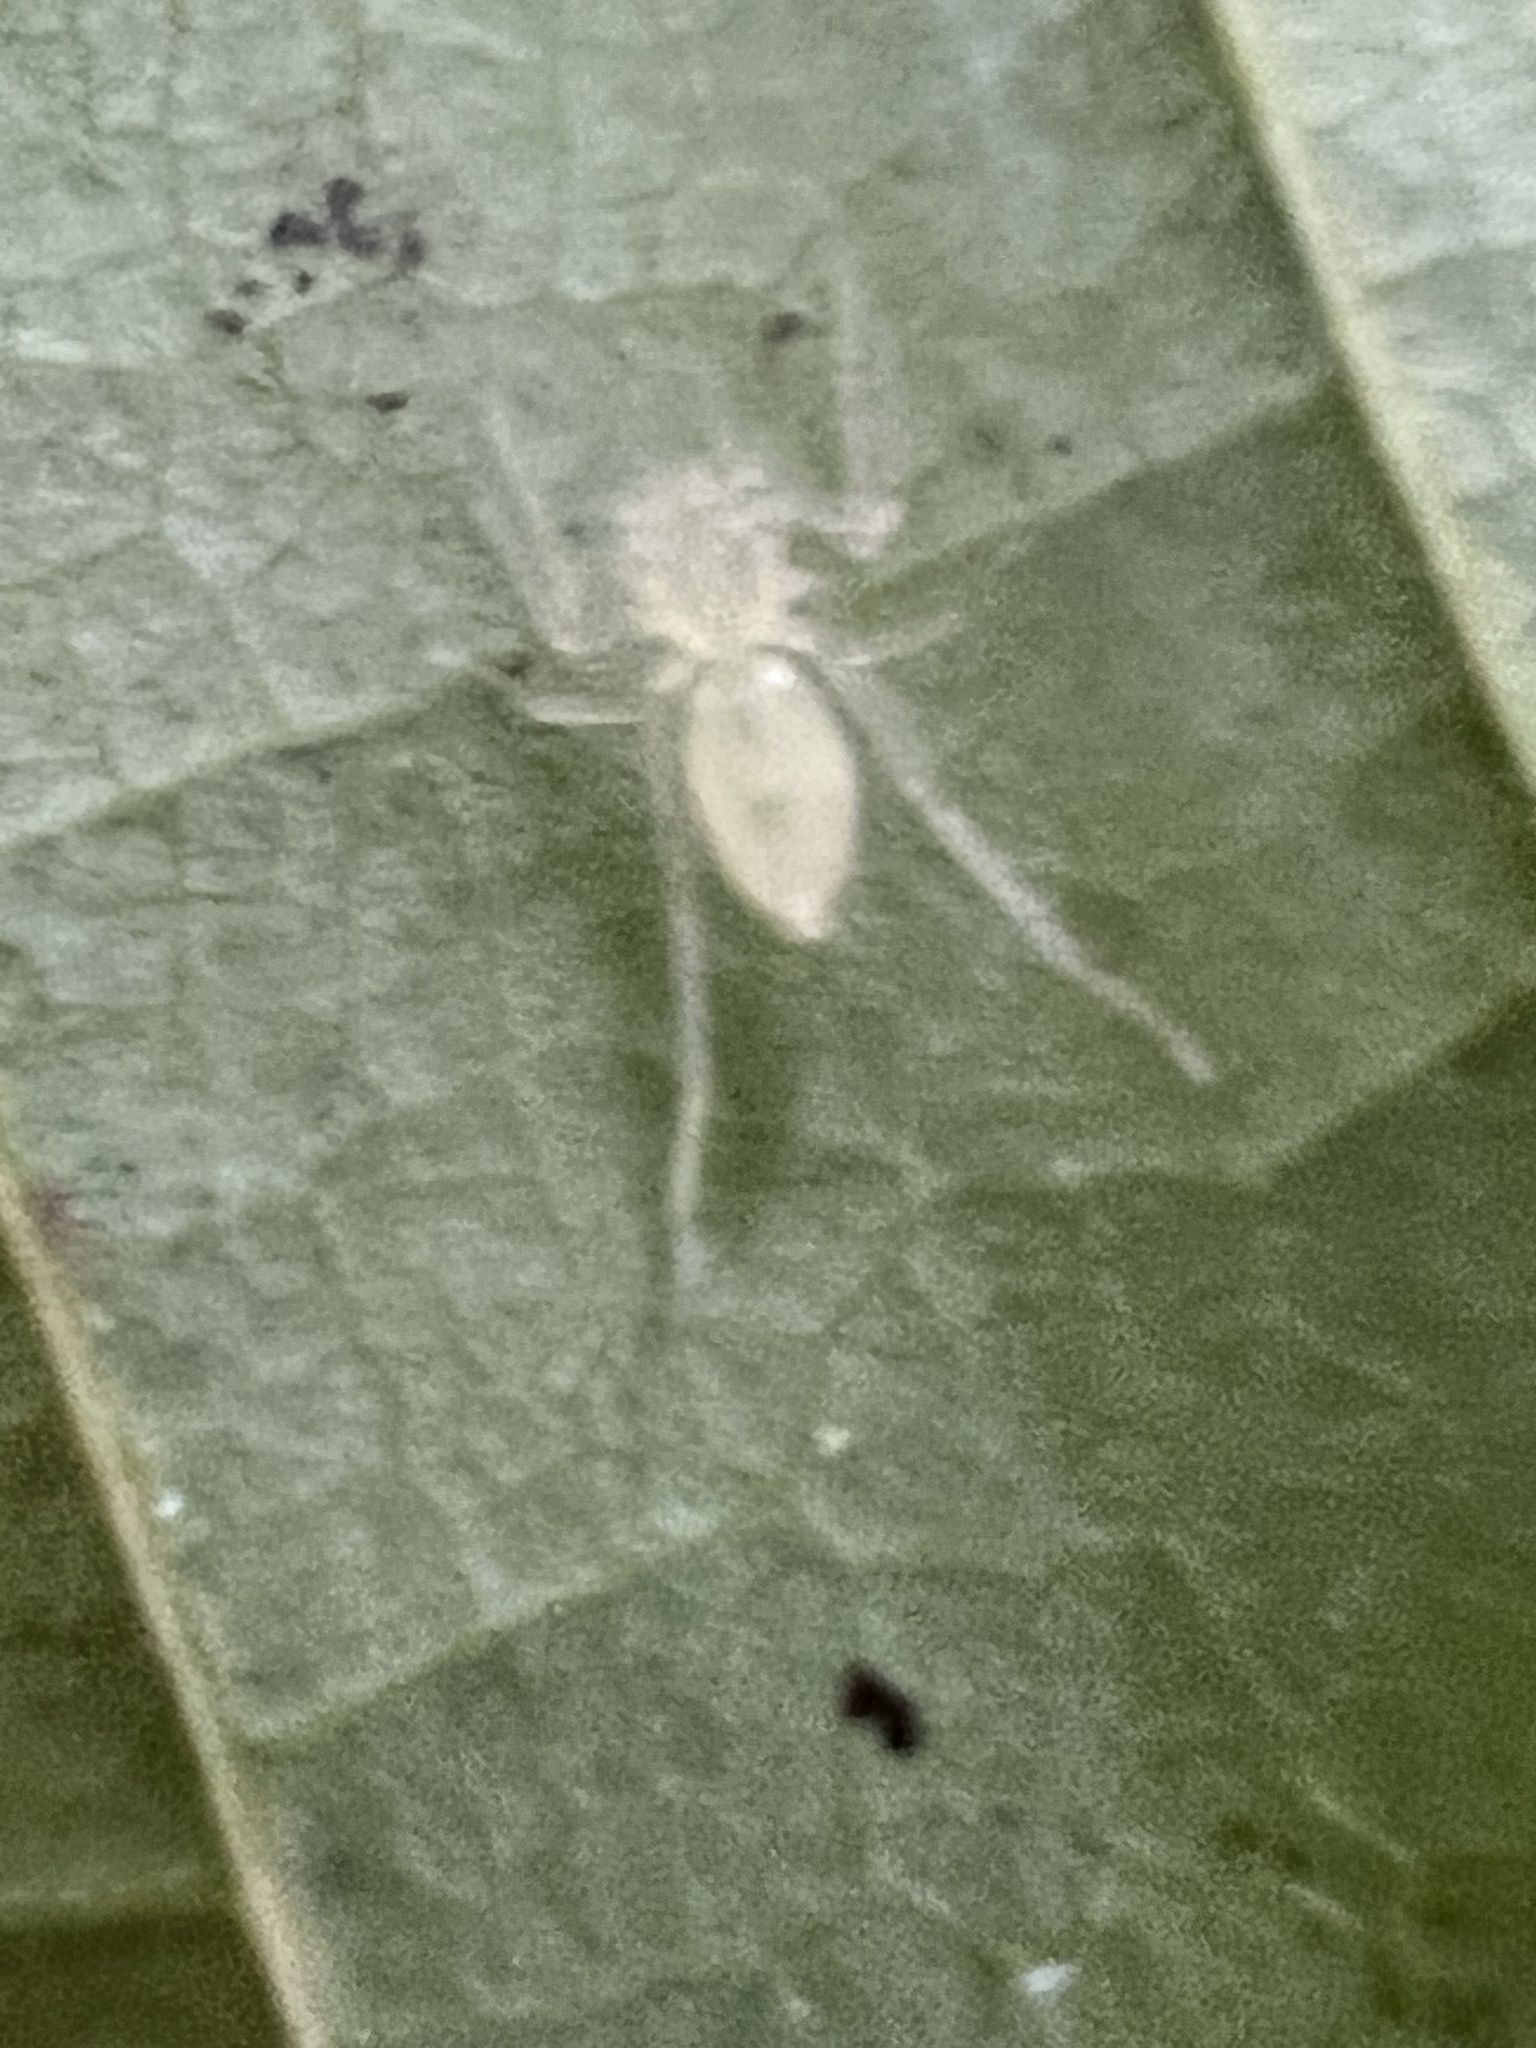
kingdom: Animalia
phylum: Arthropoda
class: Arachnida
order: Araneae
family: Anyphaenidae
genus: Wulfila
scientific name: Wulfila albens
